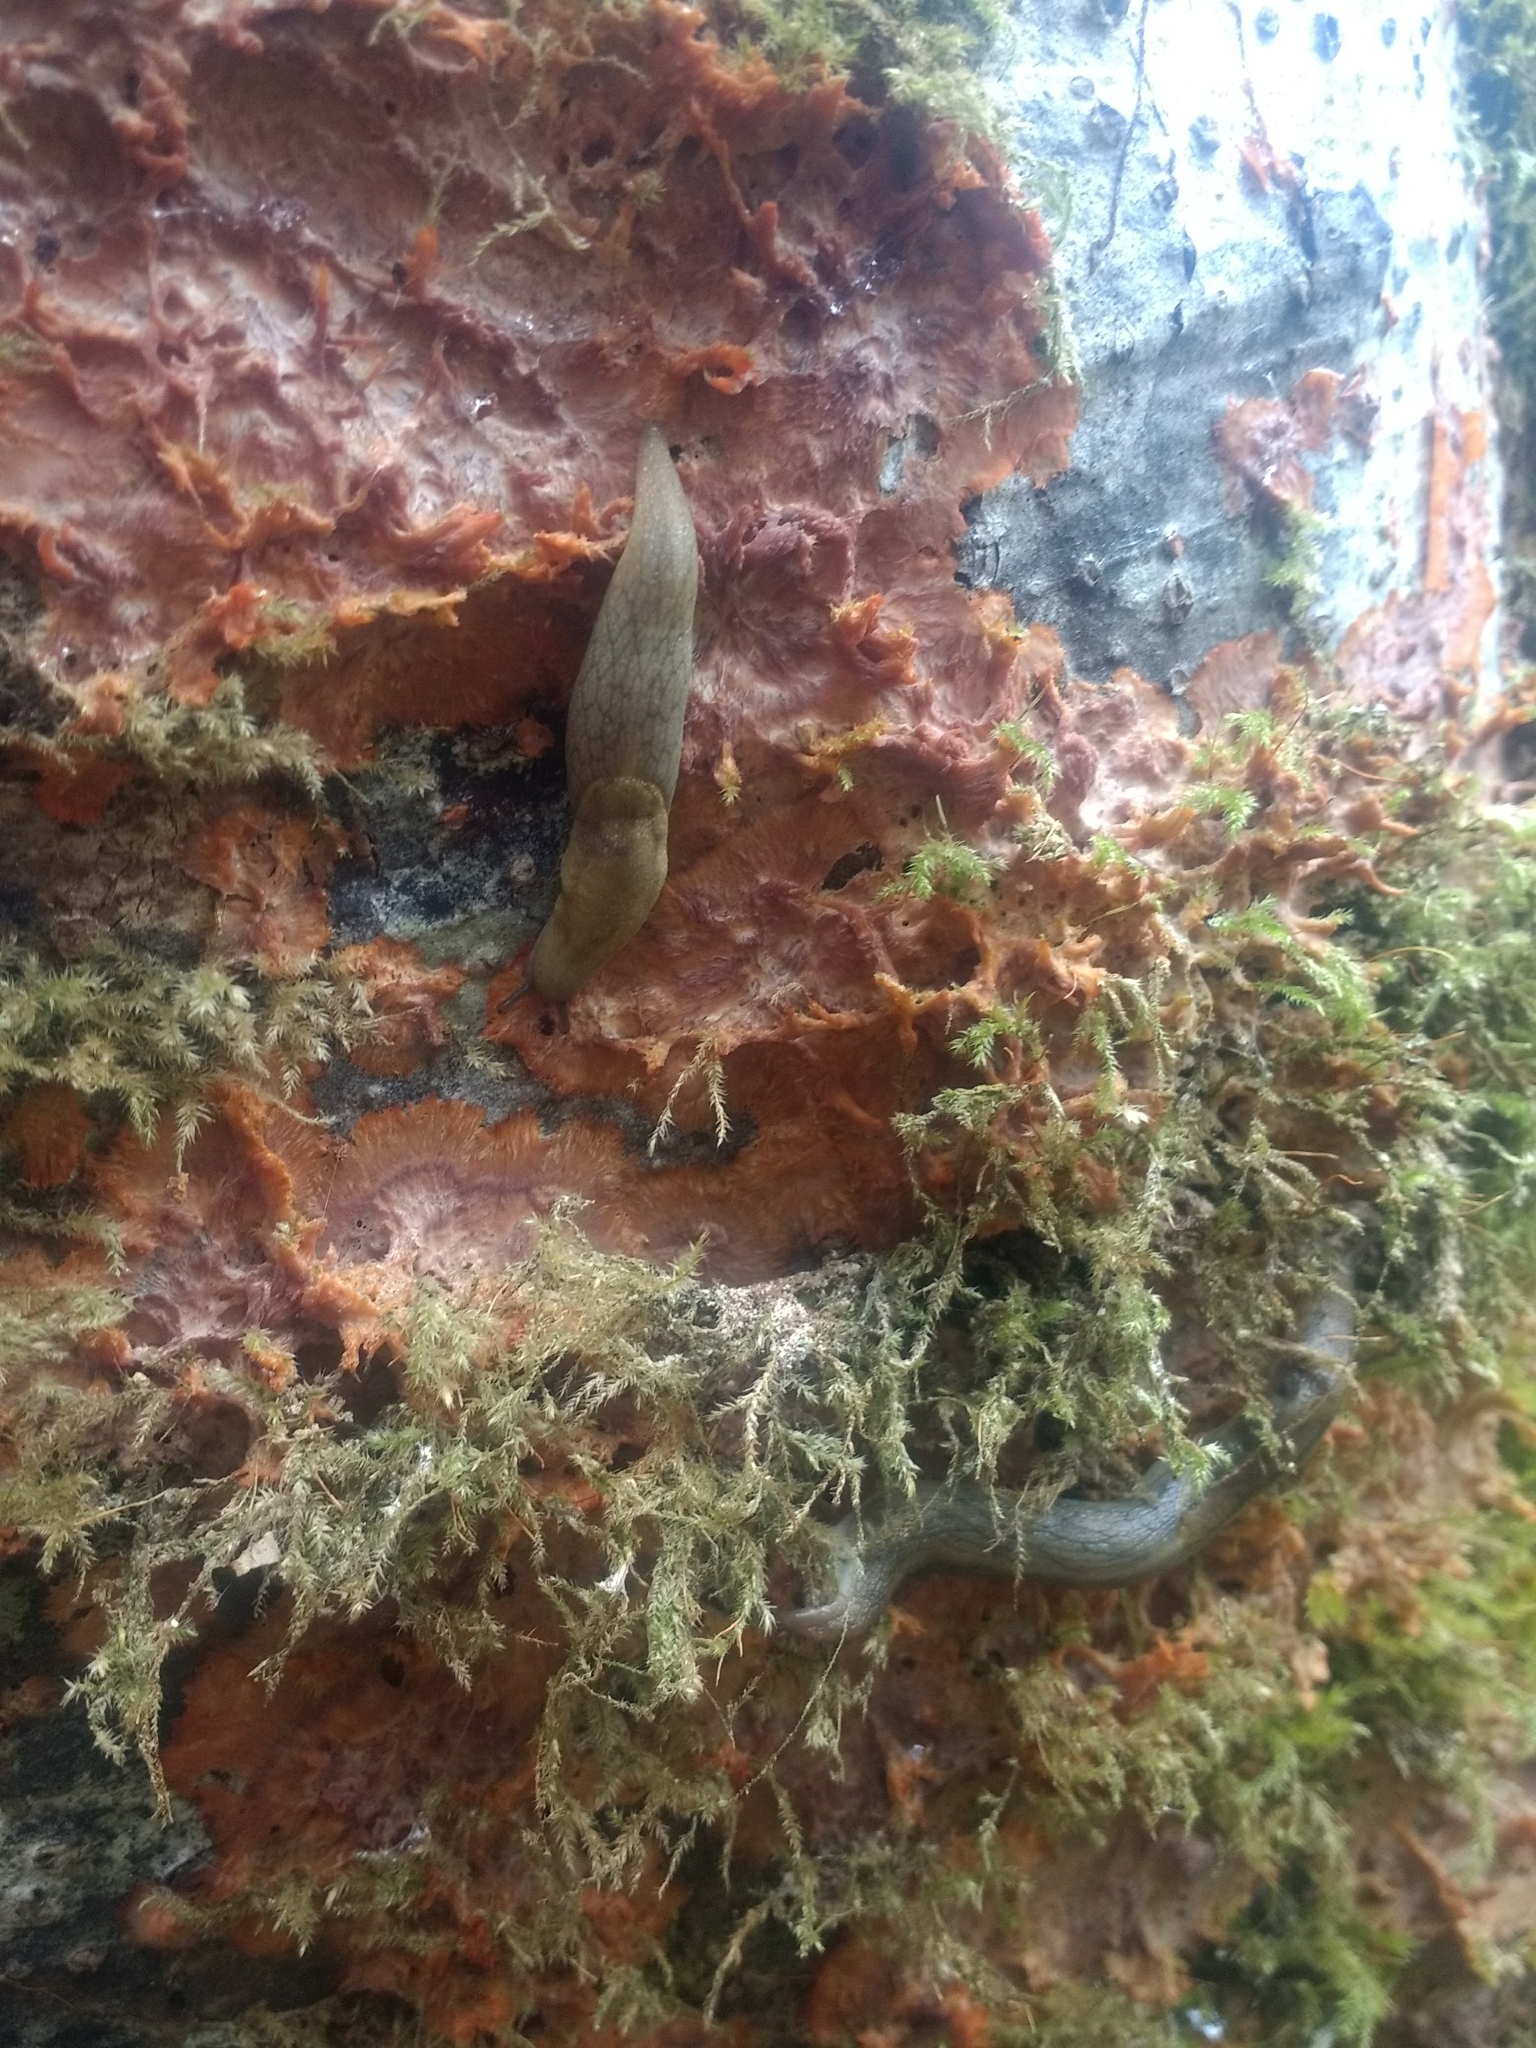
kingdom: Animalia
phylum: Mollusca
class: Gastropoda
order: Stylommatophora
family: Ariolimacidae
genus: Prophysaon
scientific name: Prophysaon andersonii
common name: Reticulate taildropper
